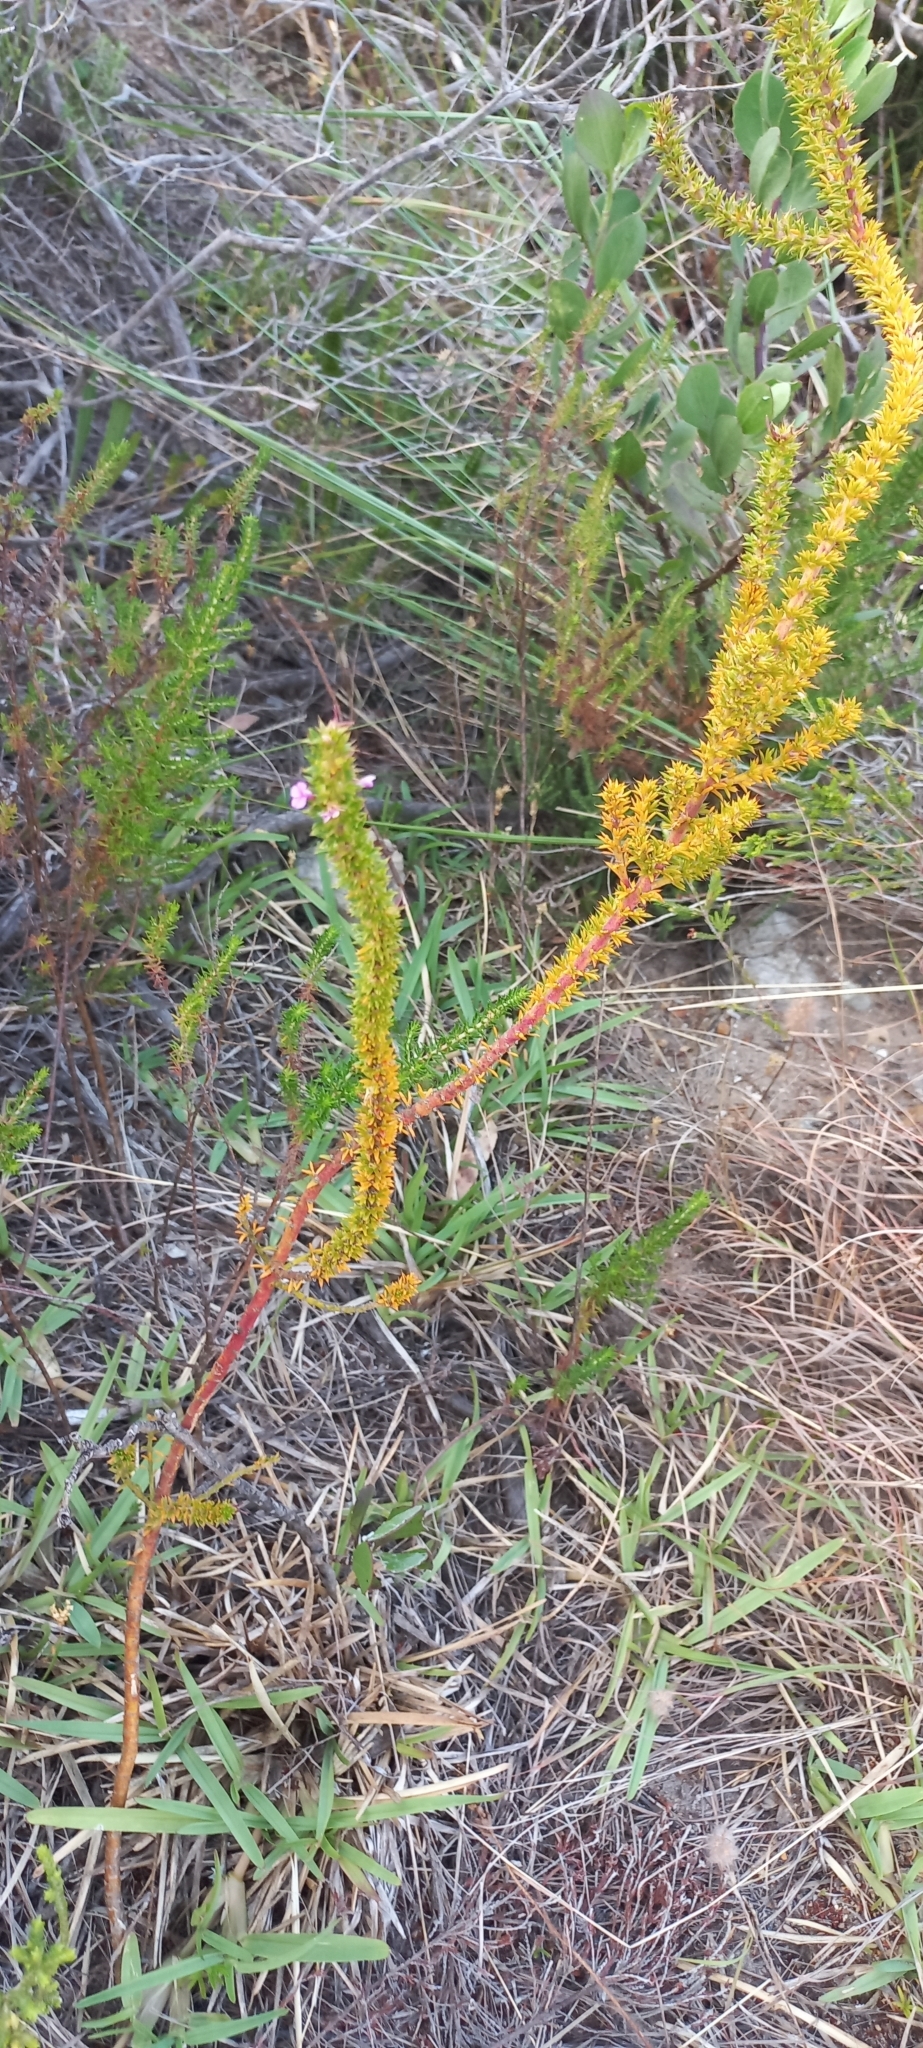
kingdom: Plantae
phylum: Tracheophyta
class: Magnoliopsida
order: Fabales
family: Polygalaceae
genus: Muraltia
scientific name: Muraltia satureioides
